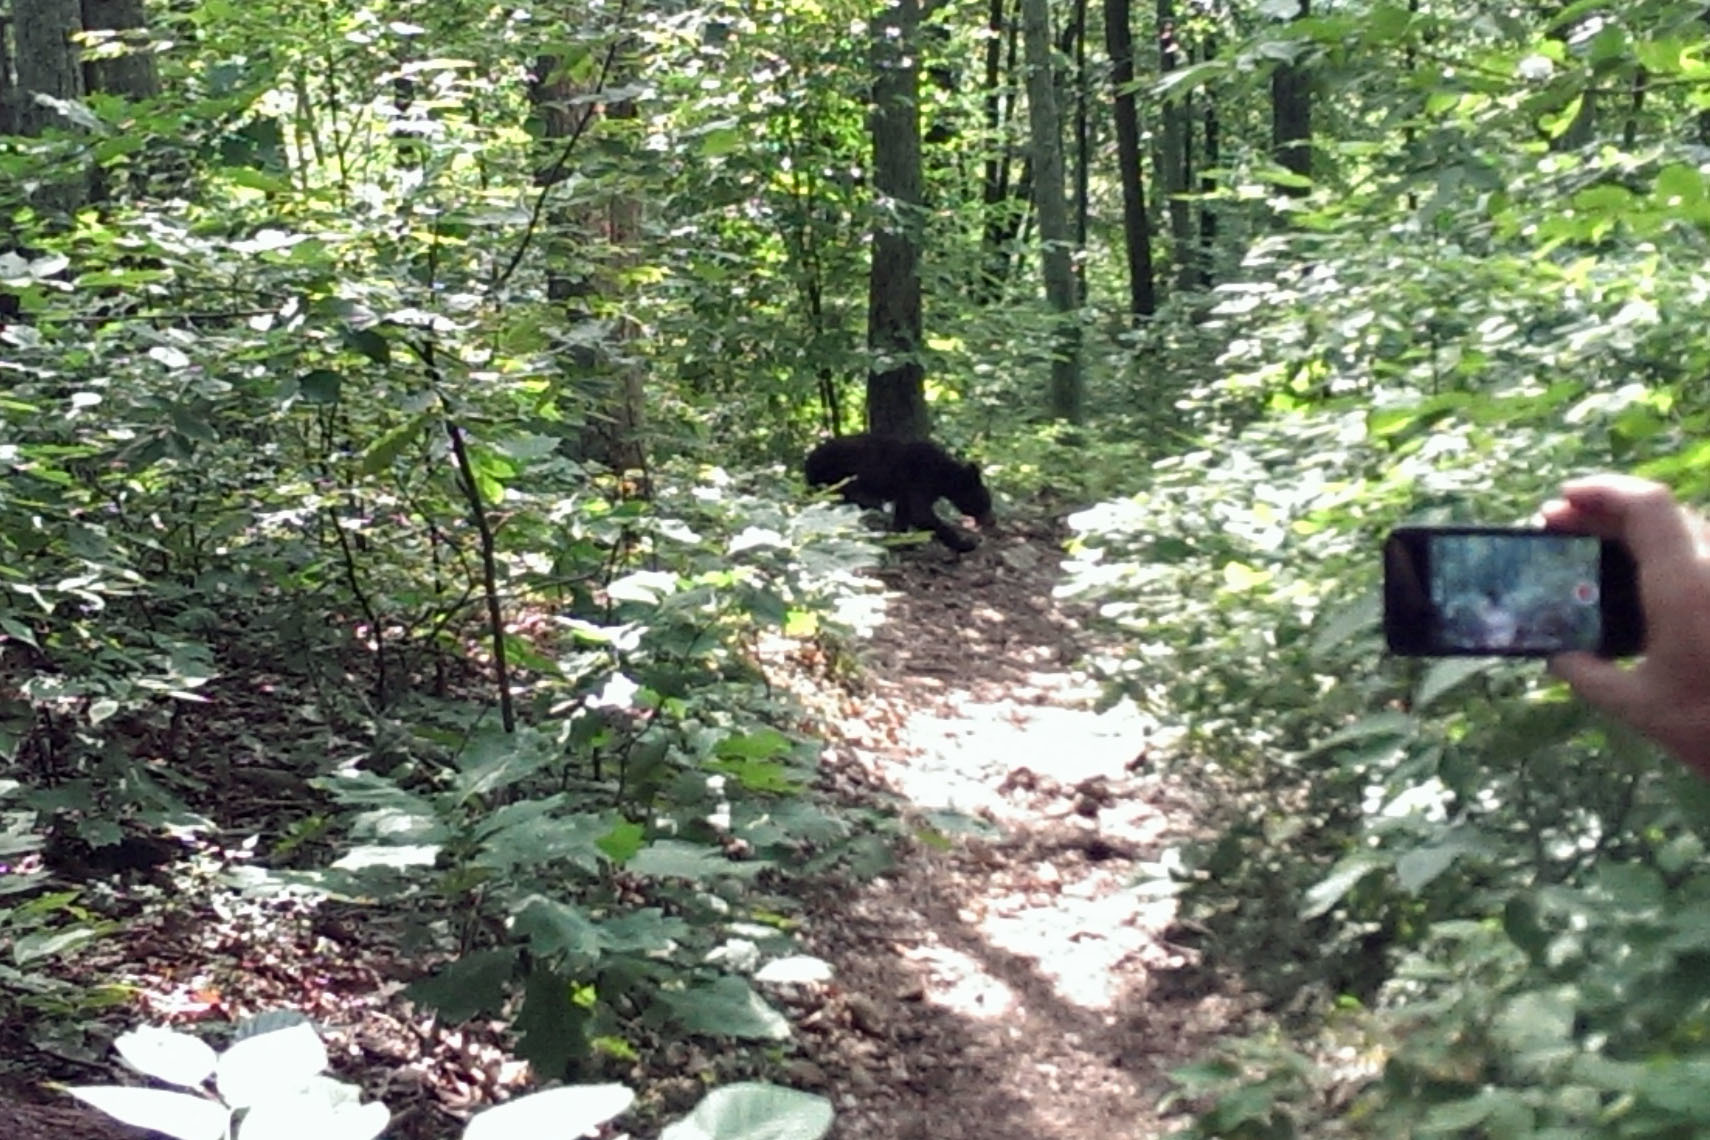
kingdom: Animalia
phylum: Chordata
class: Mammalia
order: Carnivora
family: Ursidae
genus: Ursus
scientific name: Ursus americanus
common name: American black bear
